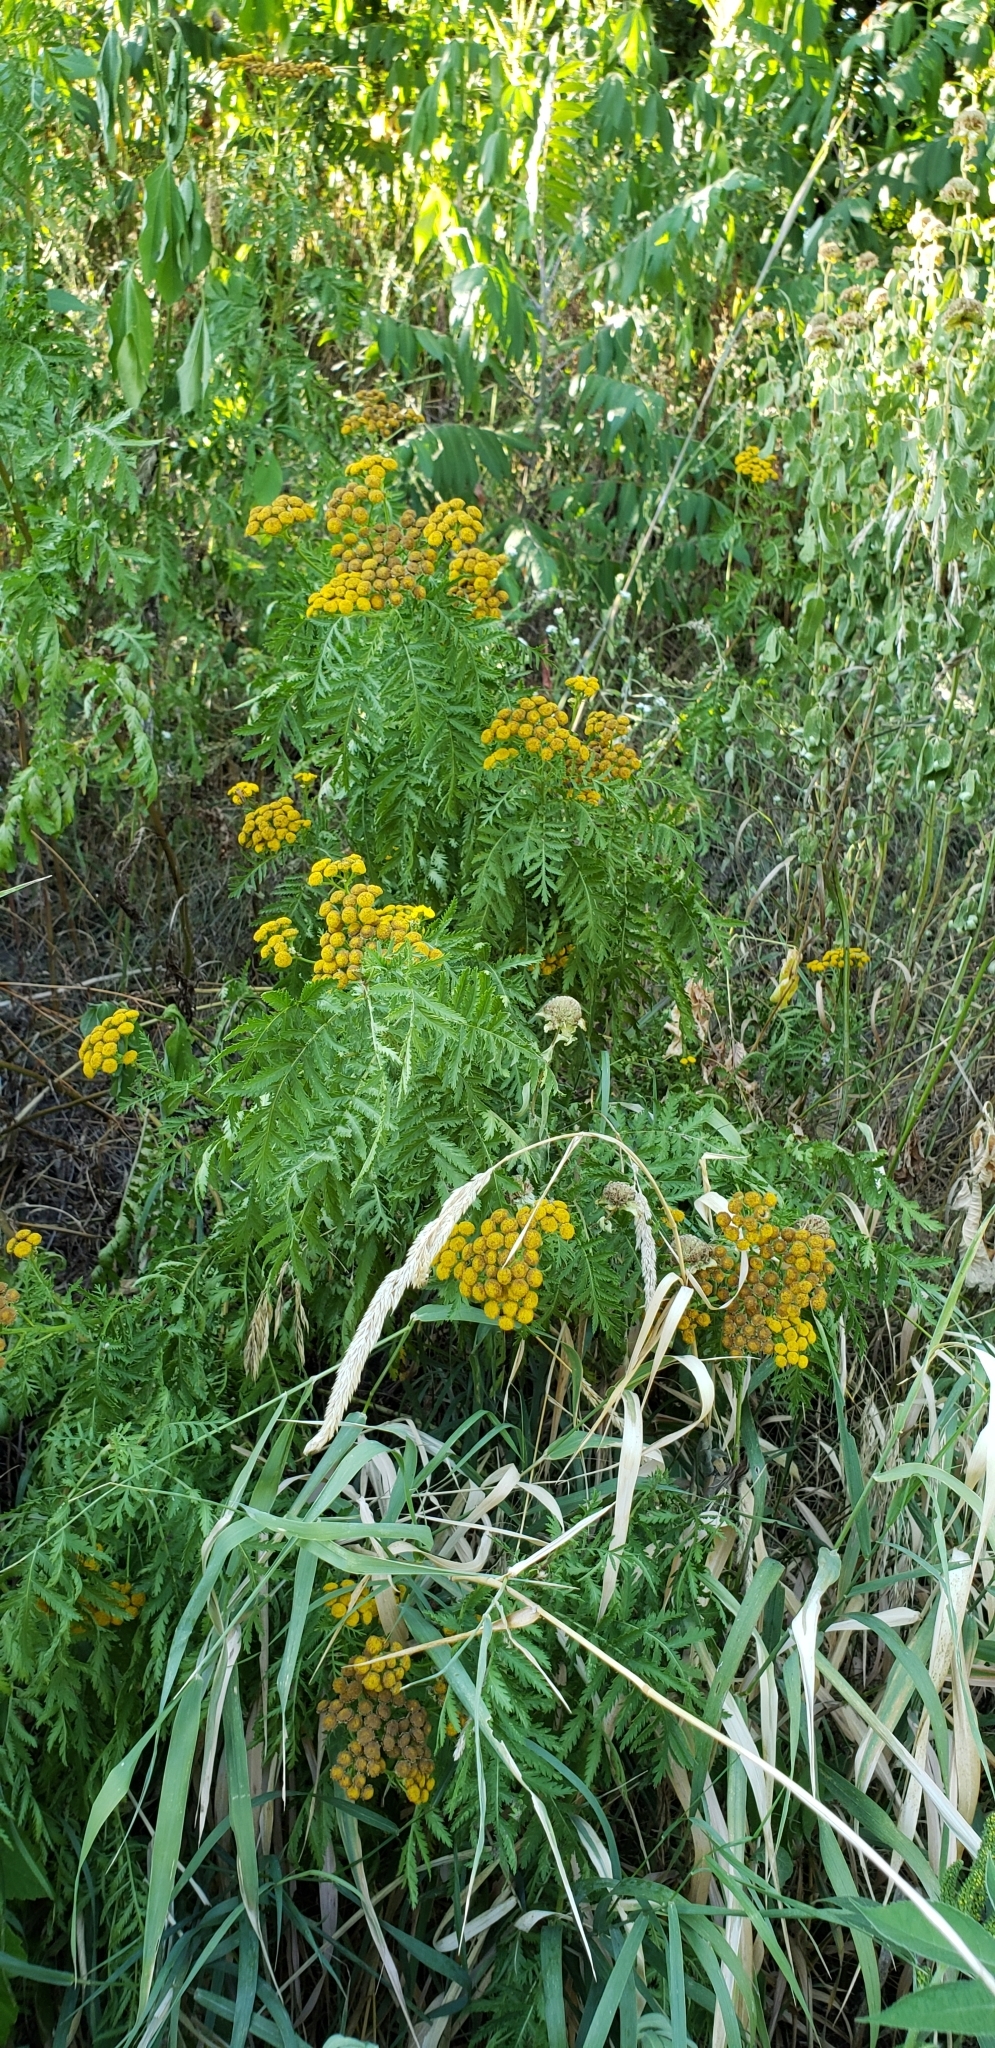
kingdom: Plantae
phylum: Tracheophyta
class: Magnoliopsida
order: Asterales
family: Asteraceae
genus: Tanacetum
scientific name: Tanacetum vulgare
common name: Common tansy
